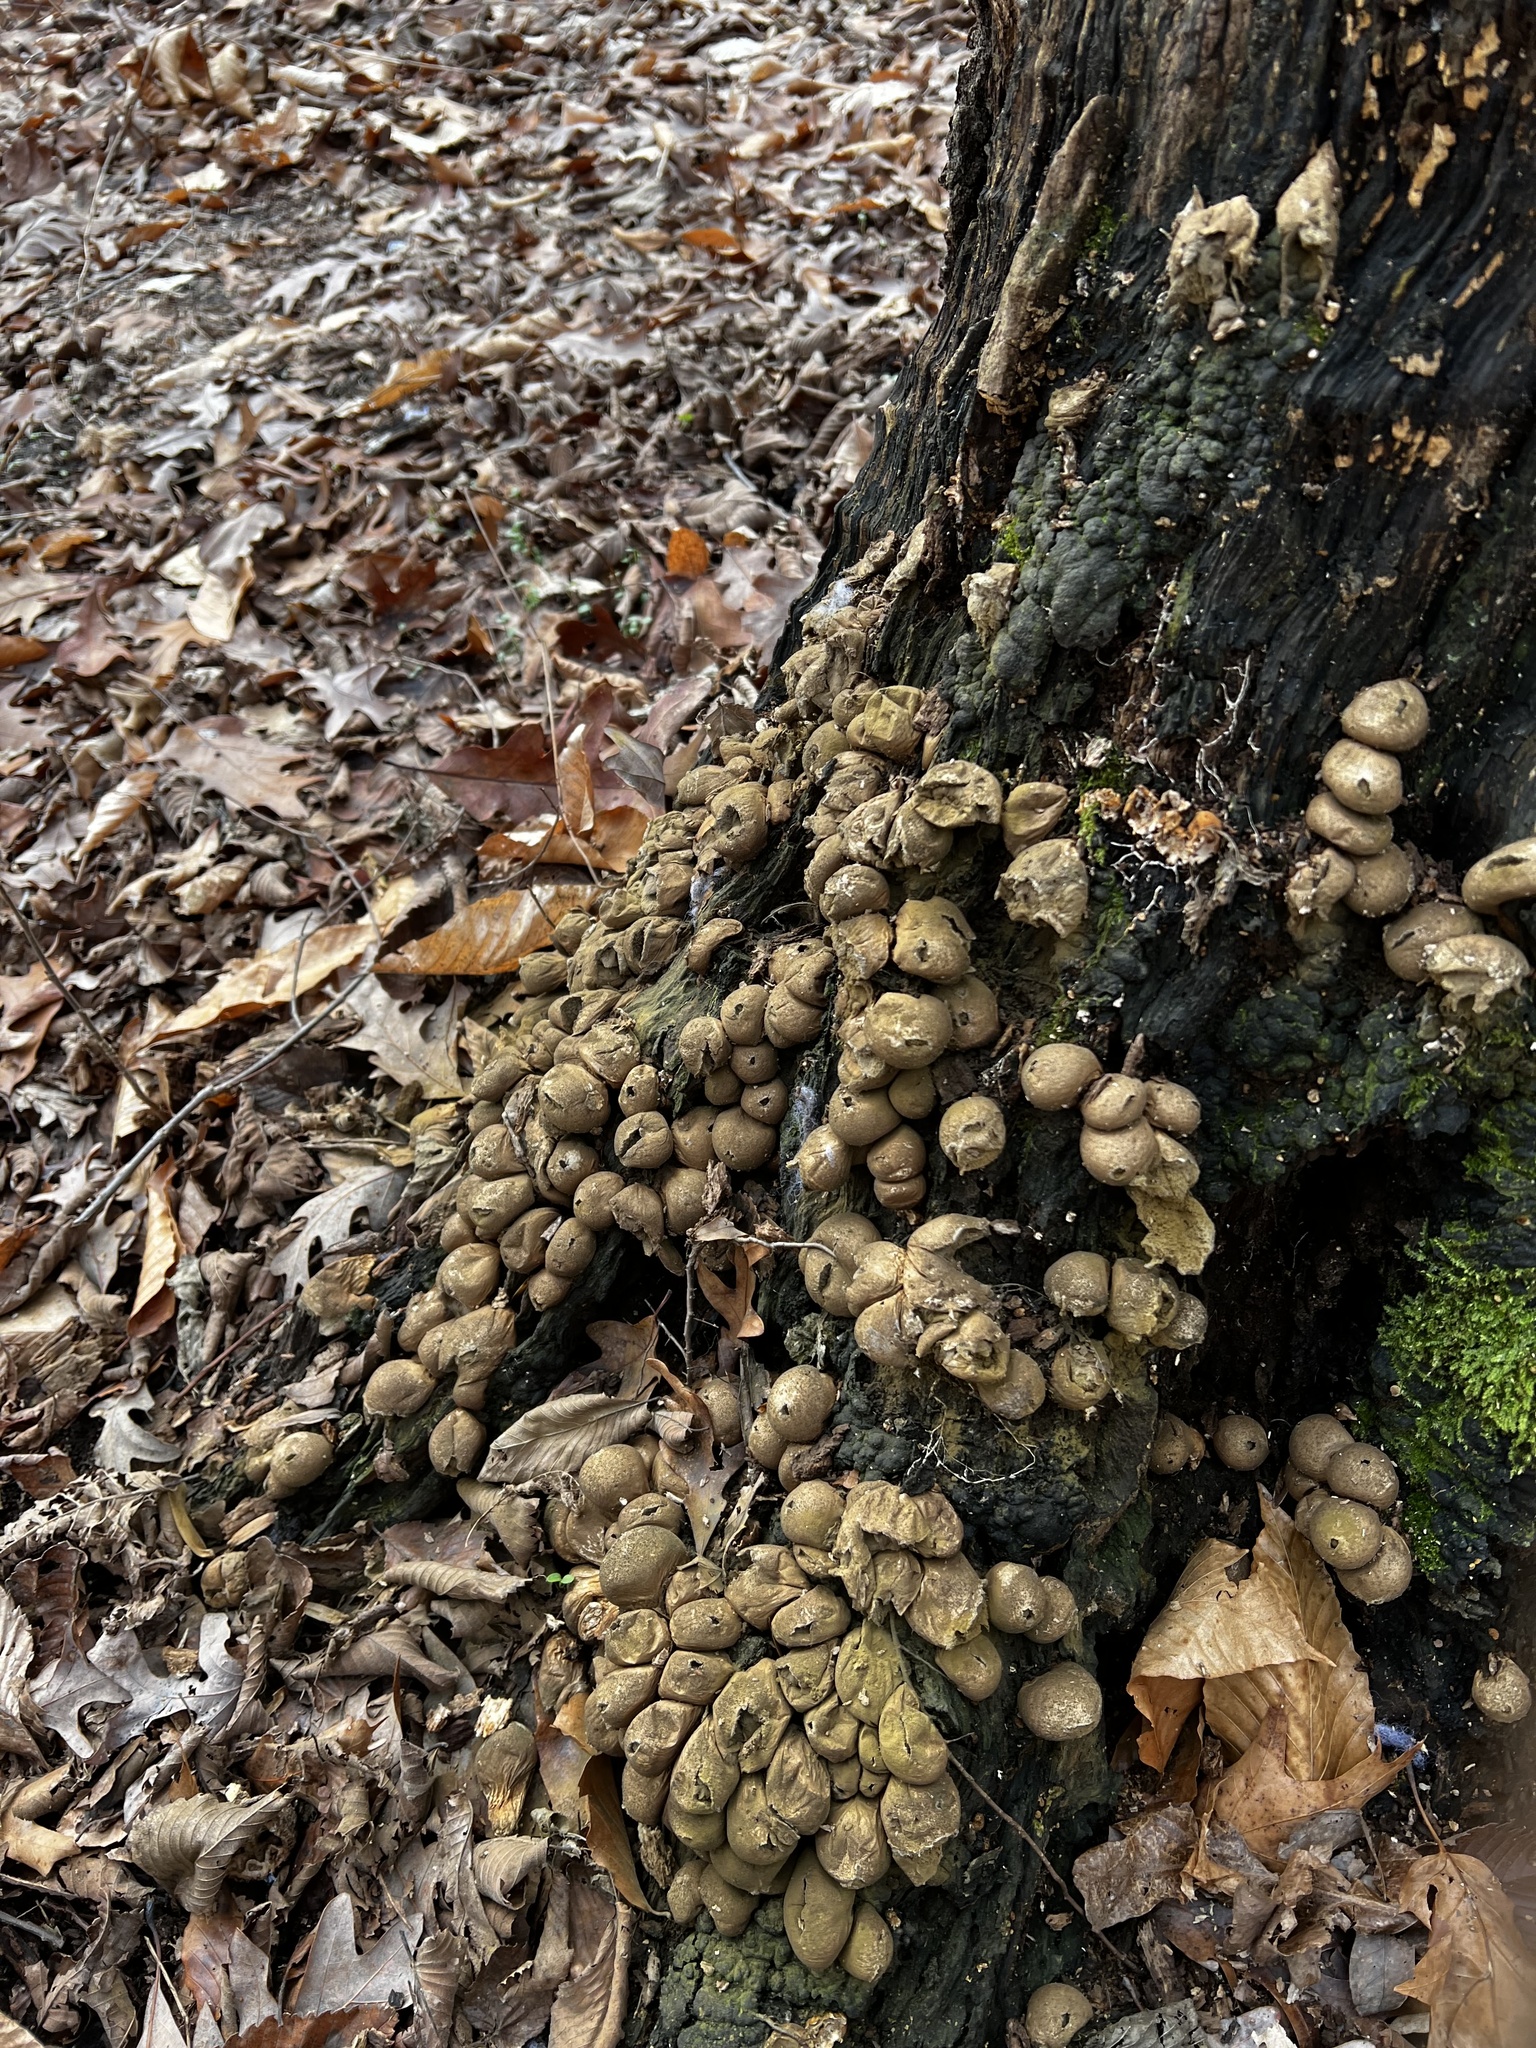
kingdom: Fungi
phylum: Basidiomycota
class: Agaricomycetes
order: Agaricales
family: Lycoperdaceae
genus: Apioperdon
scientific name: Apioperdon pyriforme
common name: Pear-shaped puffball
